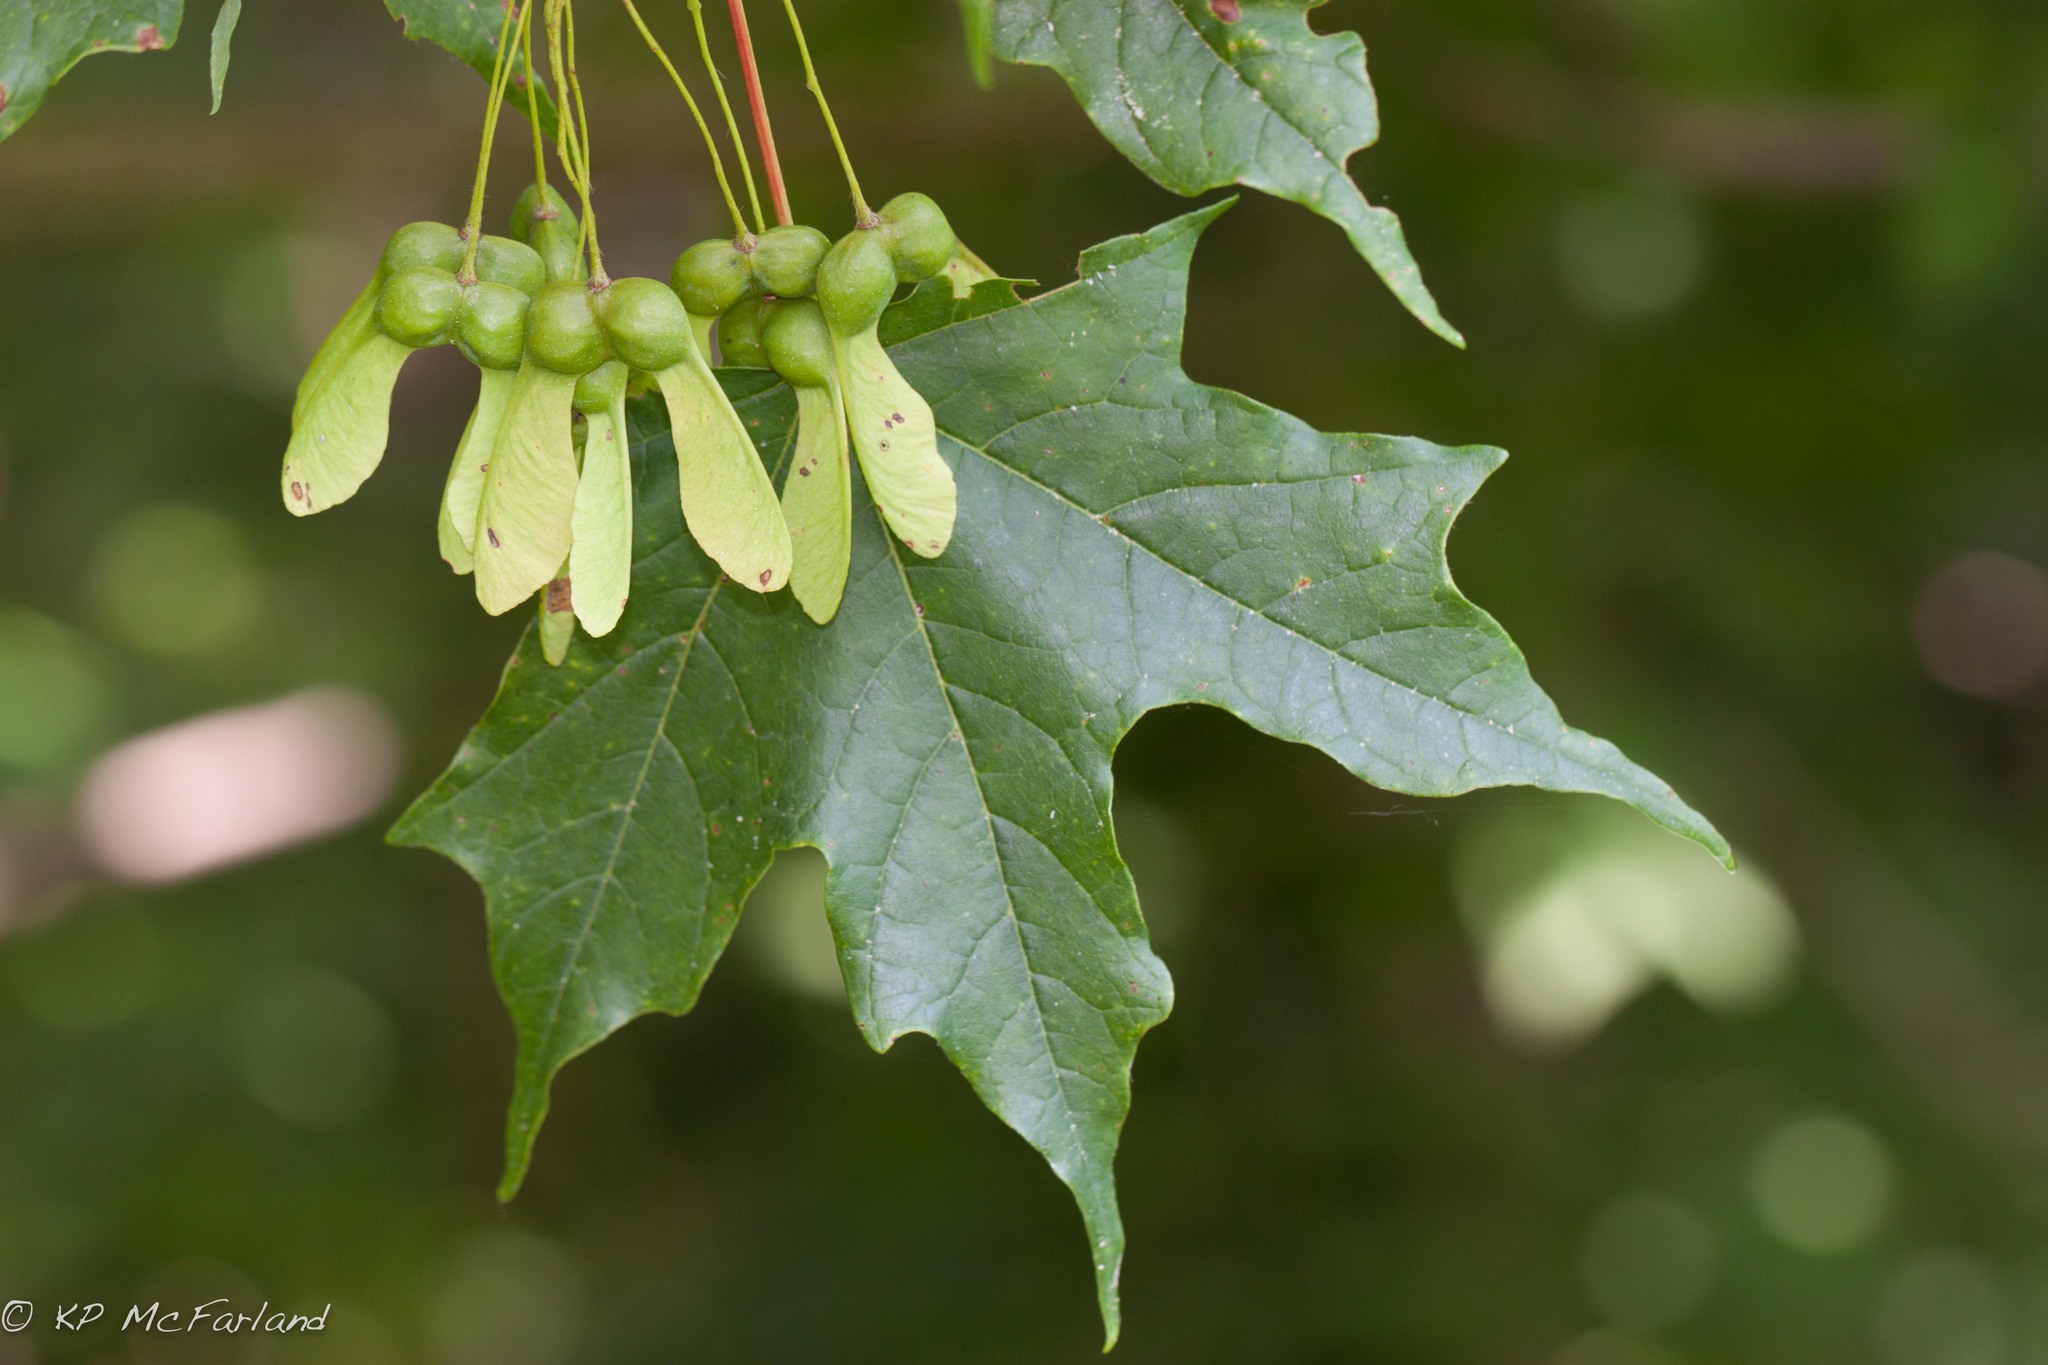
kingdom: Plantae
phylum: Tracheophyta
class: Magnoliopsida
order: Sapindales
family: Sapindaceae
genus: Acer
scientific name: Acer saccharum
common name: Sugar maple
